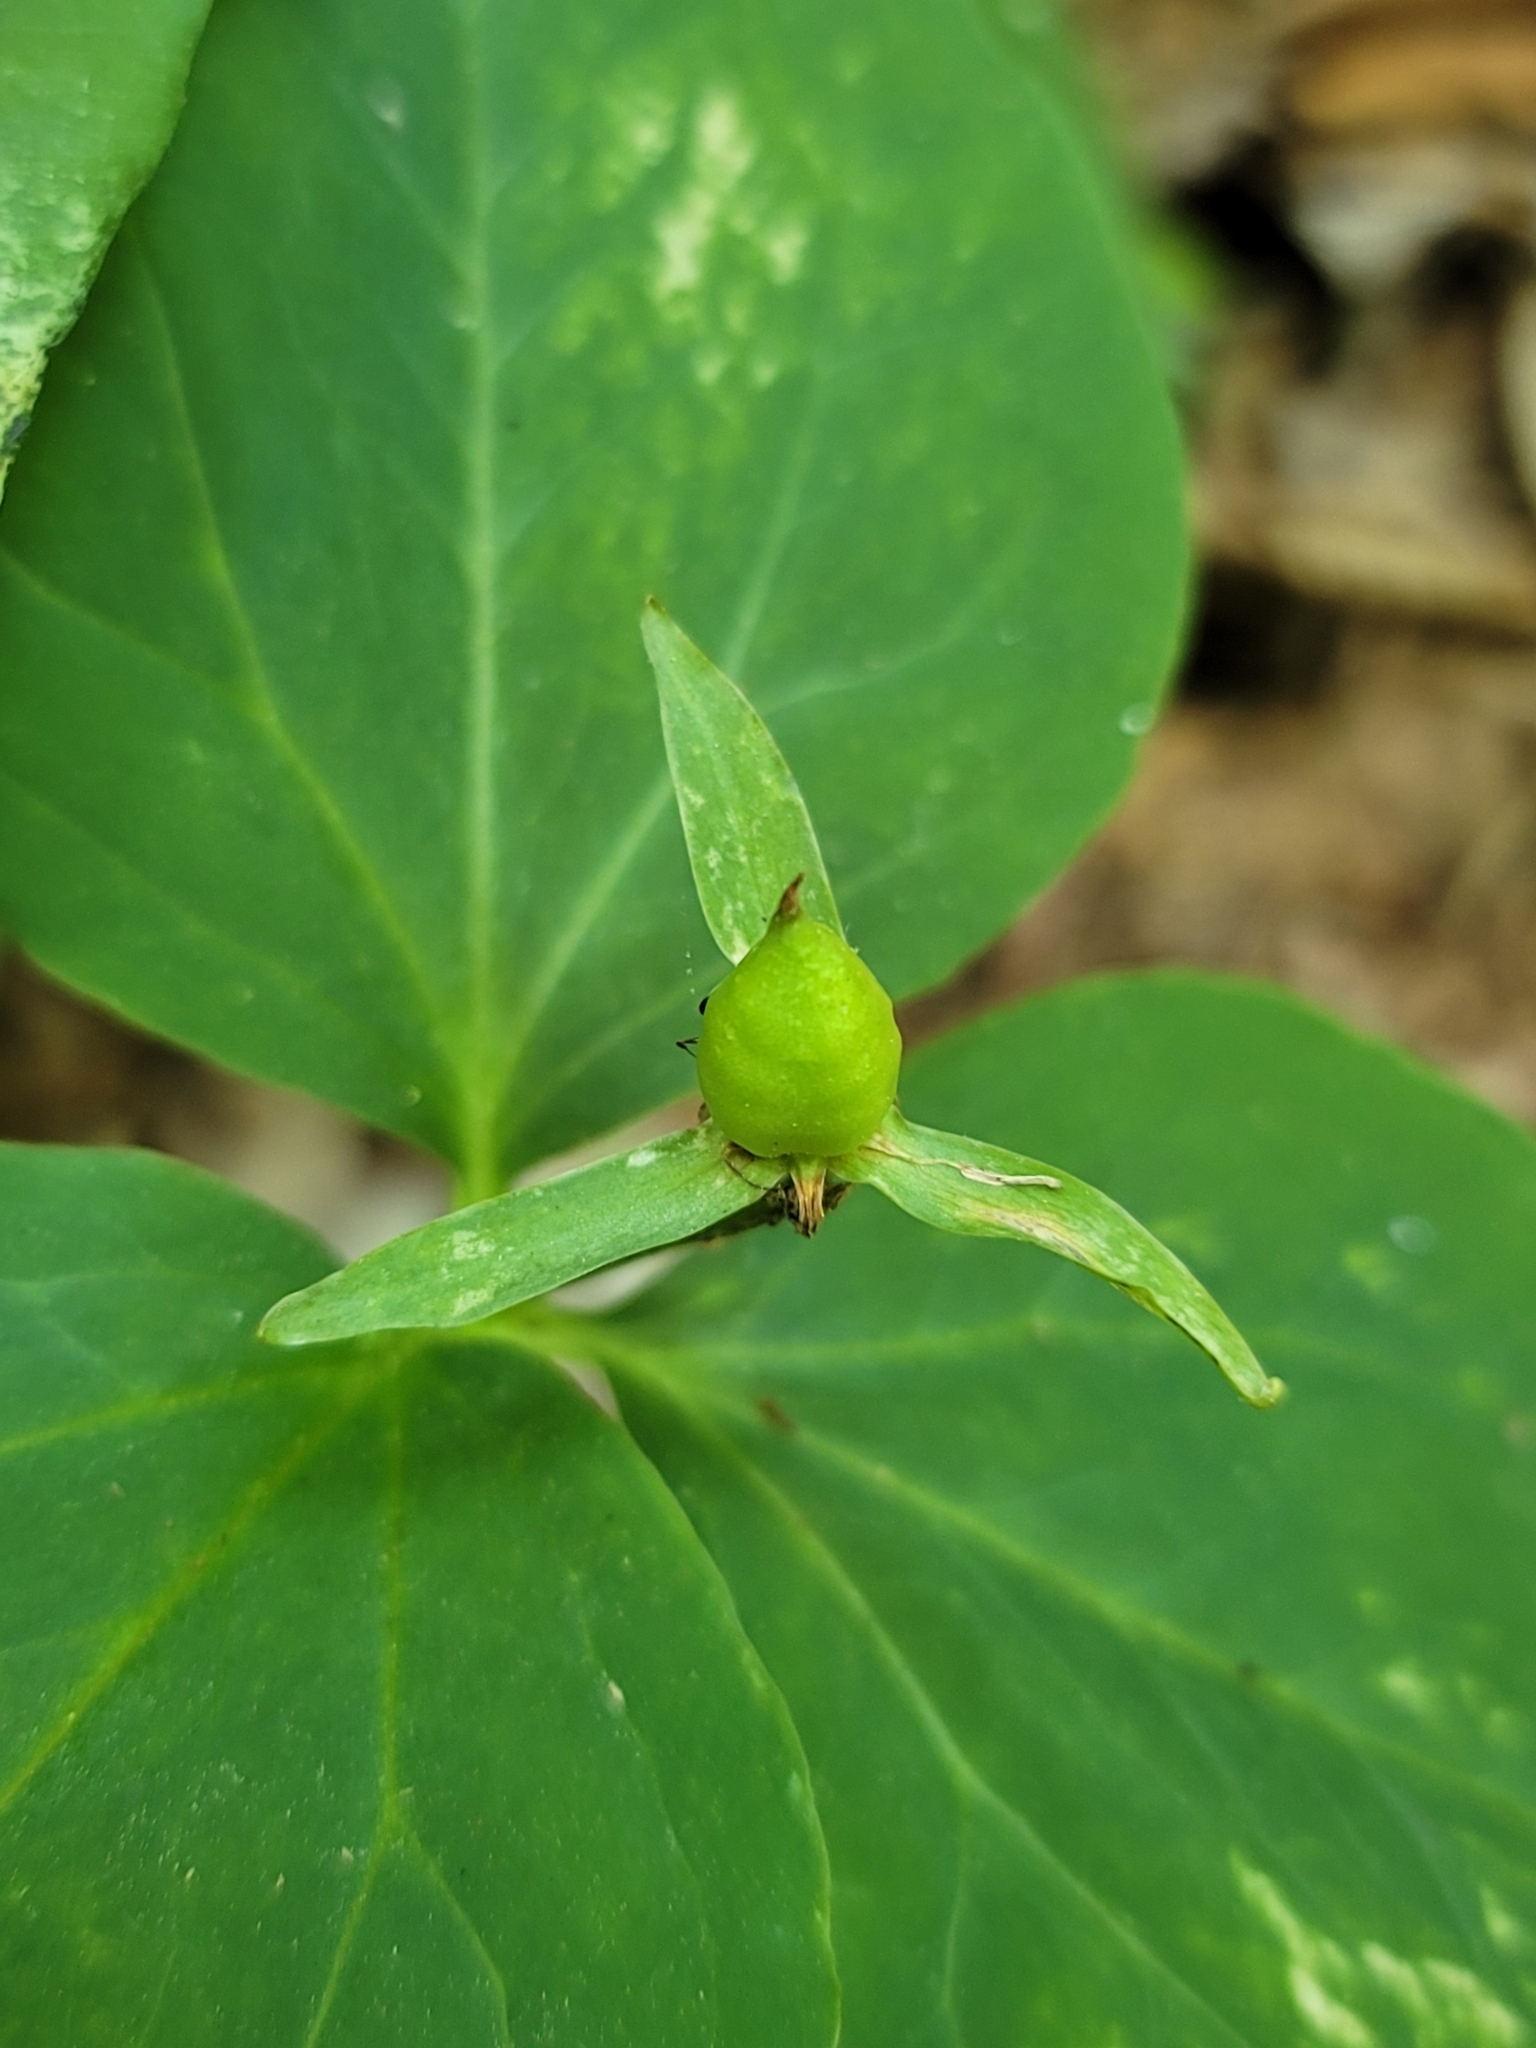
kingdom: Plantae
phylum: Tracheophyta
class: Liliopsida
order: Liliales
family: Melanthiaceae
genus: Trillium
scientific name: Trillium undulatum
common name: Paint trillium
